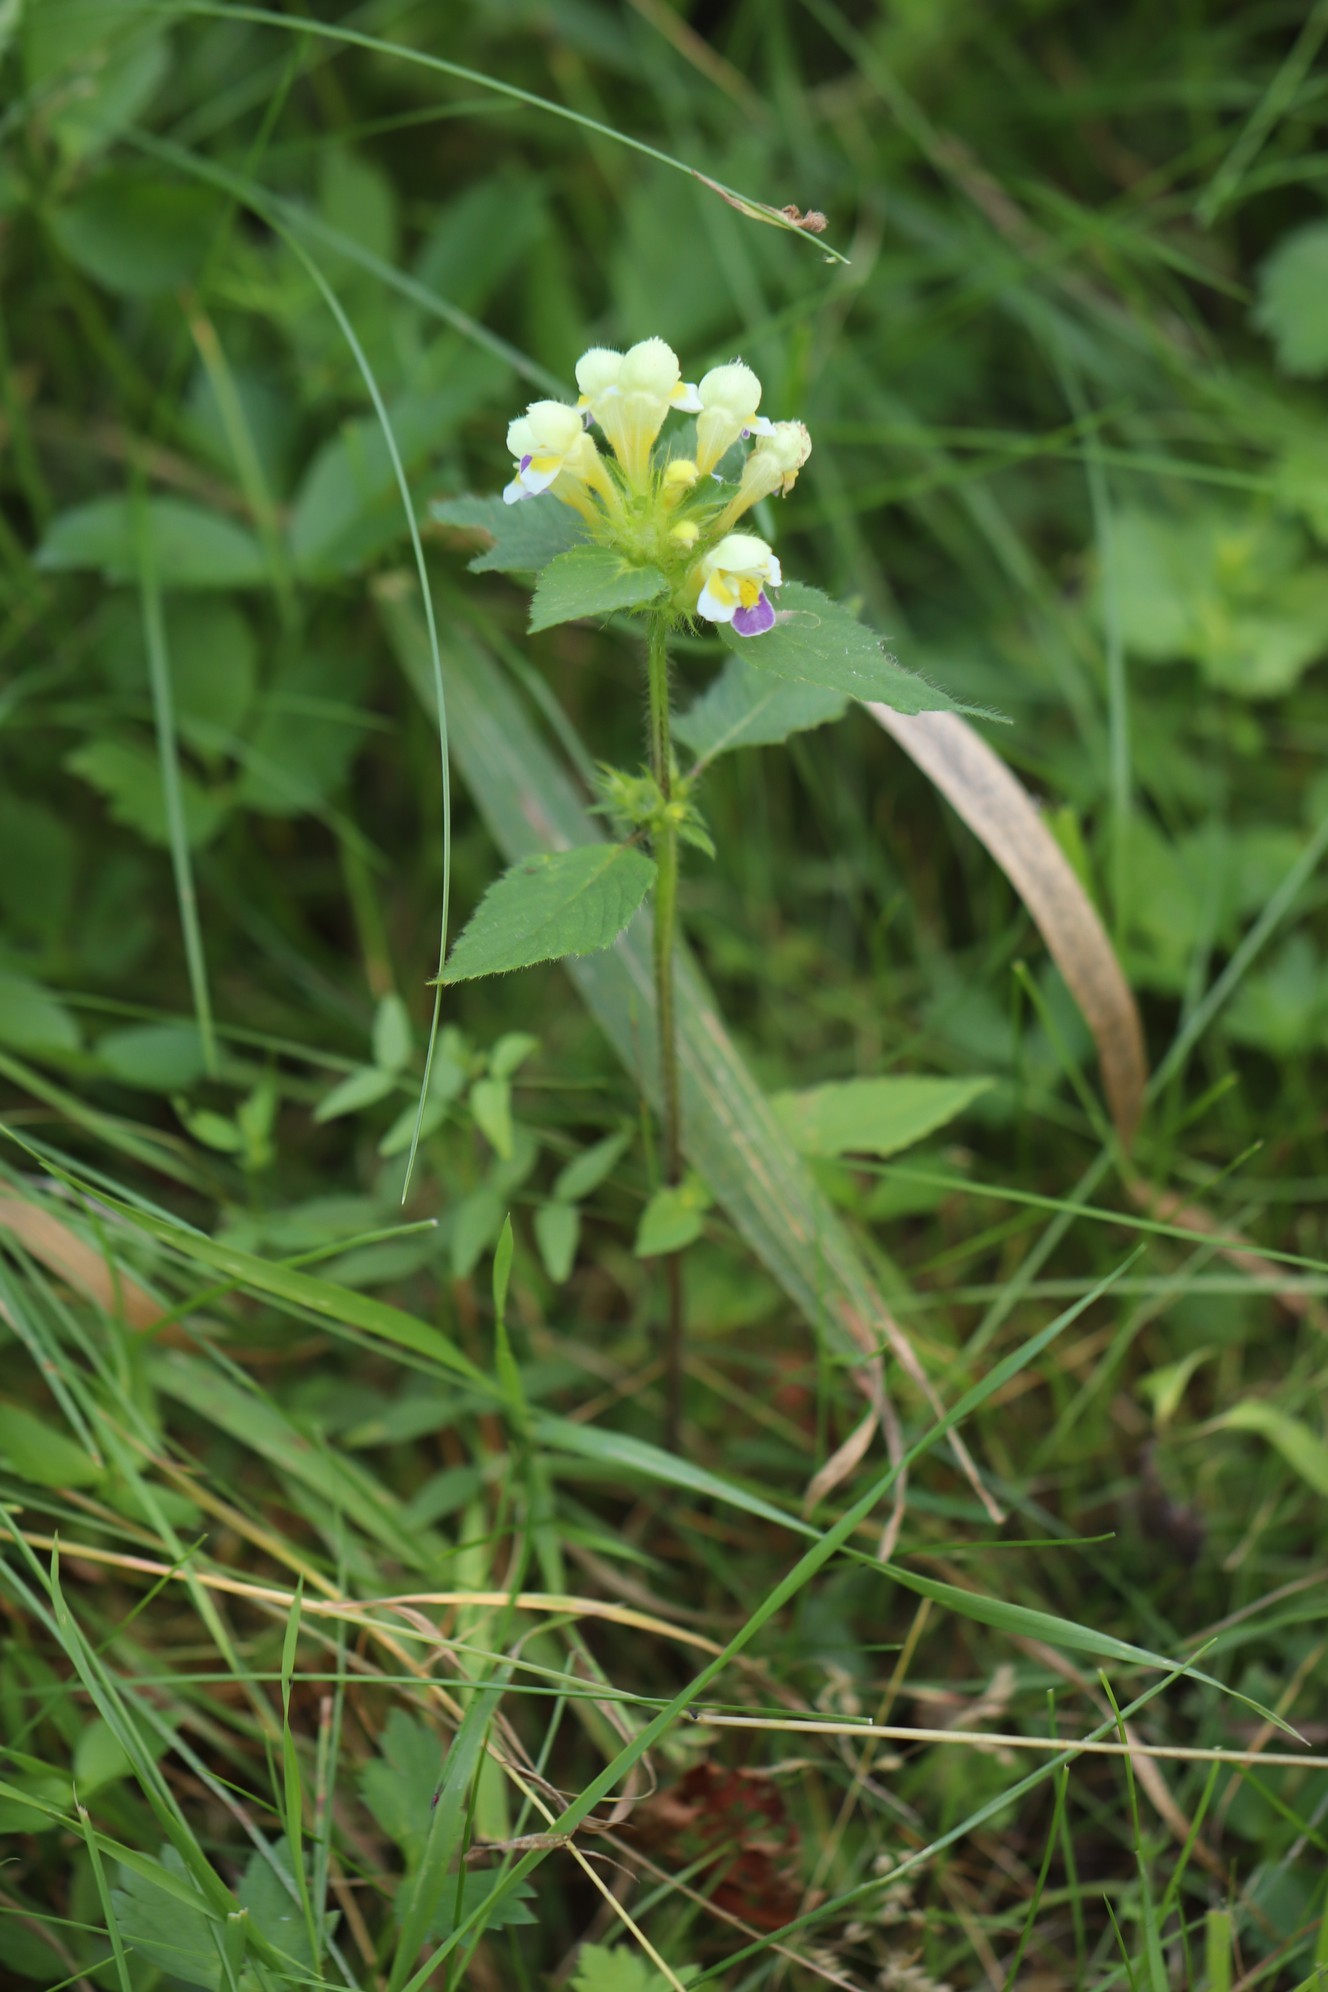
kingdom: Plantae
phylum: Tracheophyta
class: Magnoliopsida
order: Lamiales
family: Lamiaceae
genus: Galeopsis
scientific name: Galeopsis speciosa
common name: Large-flowered hemp-nettle
